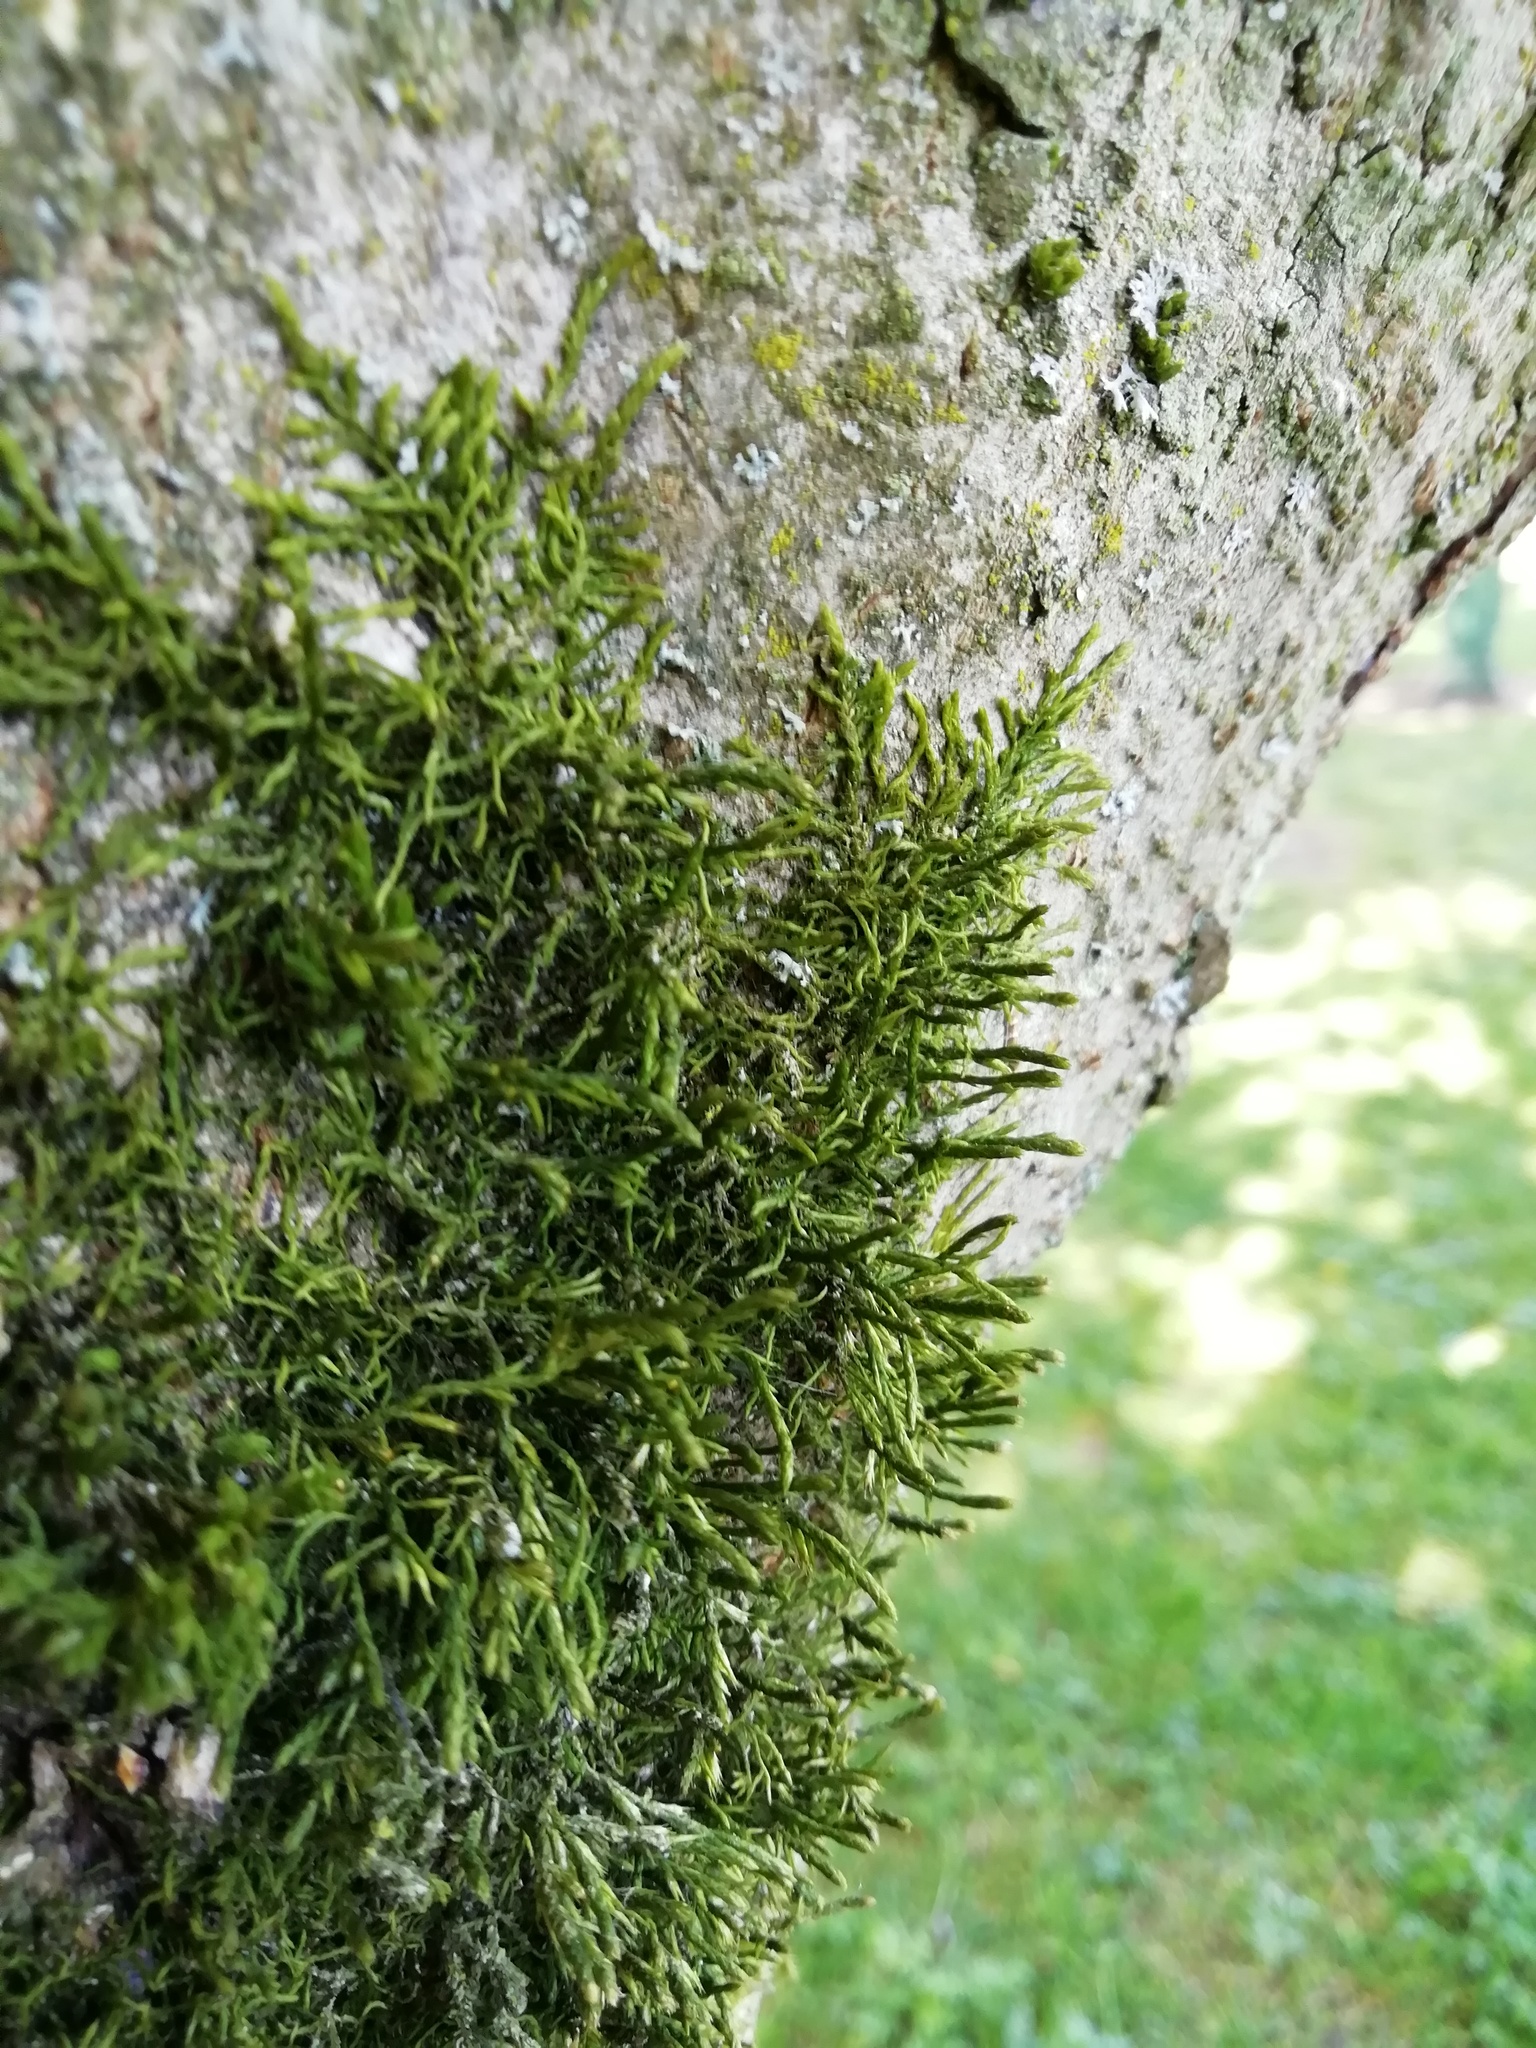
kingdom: Plantae
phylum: Bryophyta
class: Bryopsida
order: Hypnales
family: Cryphaeaceae
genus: Cryphaea
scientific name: Cryphaea heteromalla
